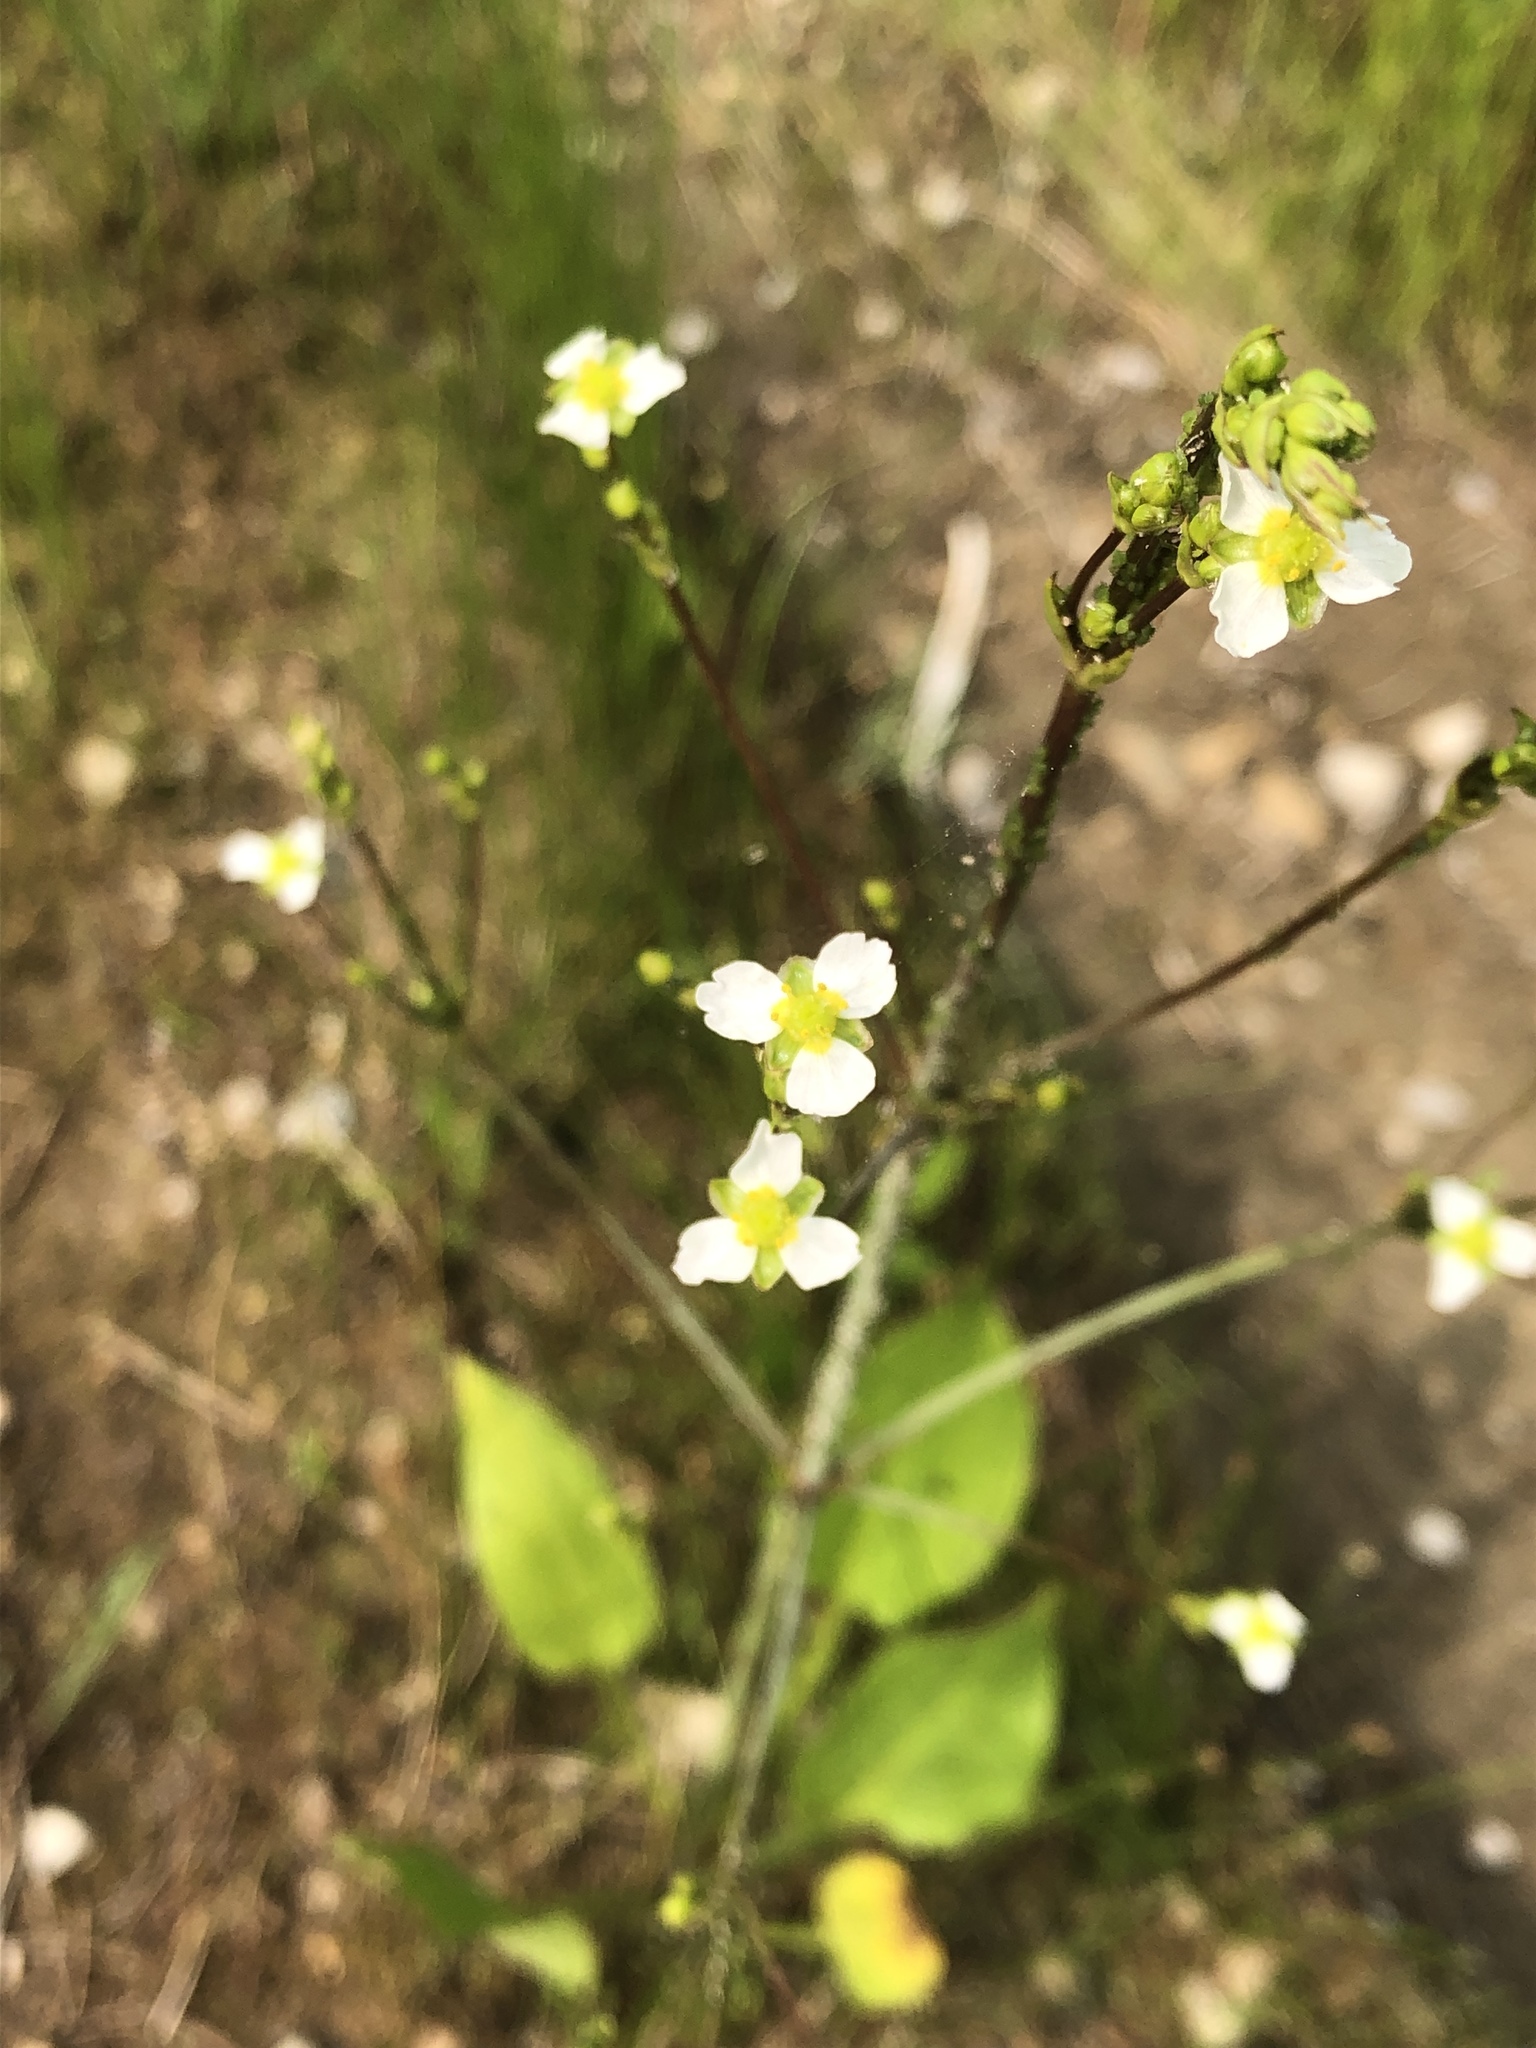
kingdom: Plantae
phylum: Tracheophyta
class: Liliopsida
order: Alismatales
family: Alismataceae
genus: Alisma
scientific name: Alisma triviale
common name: Northern water-plantain
